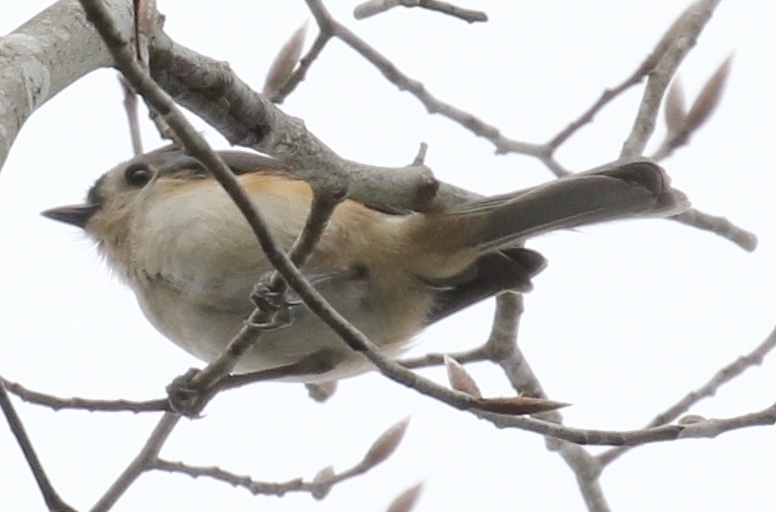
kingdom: Animalia
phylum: Chordata
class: Aves
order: Passeriformes
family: Paridae
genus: Baeolophus
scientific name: Baeolophus bicolor
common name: Tufted titmouse
